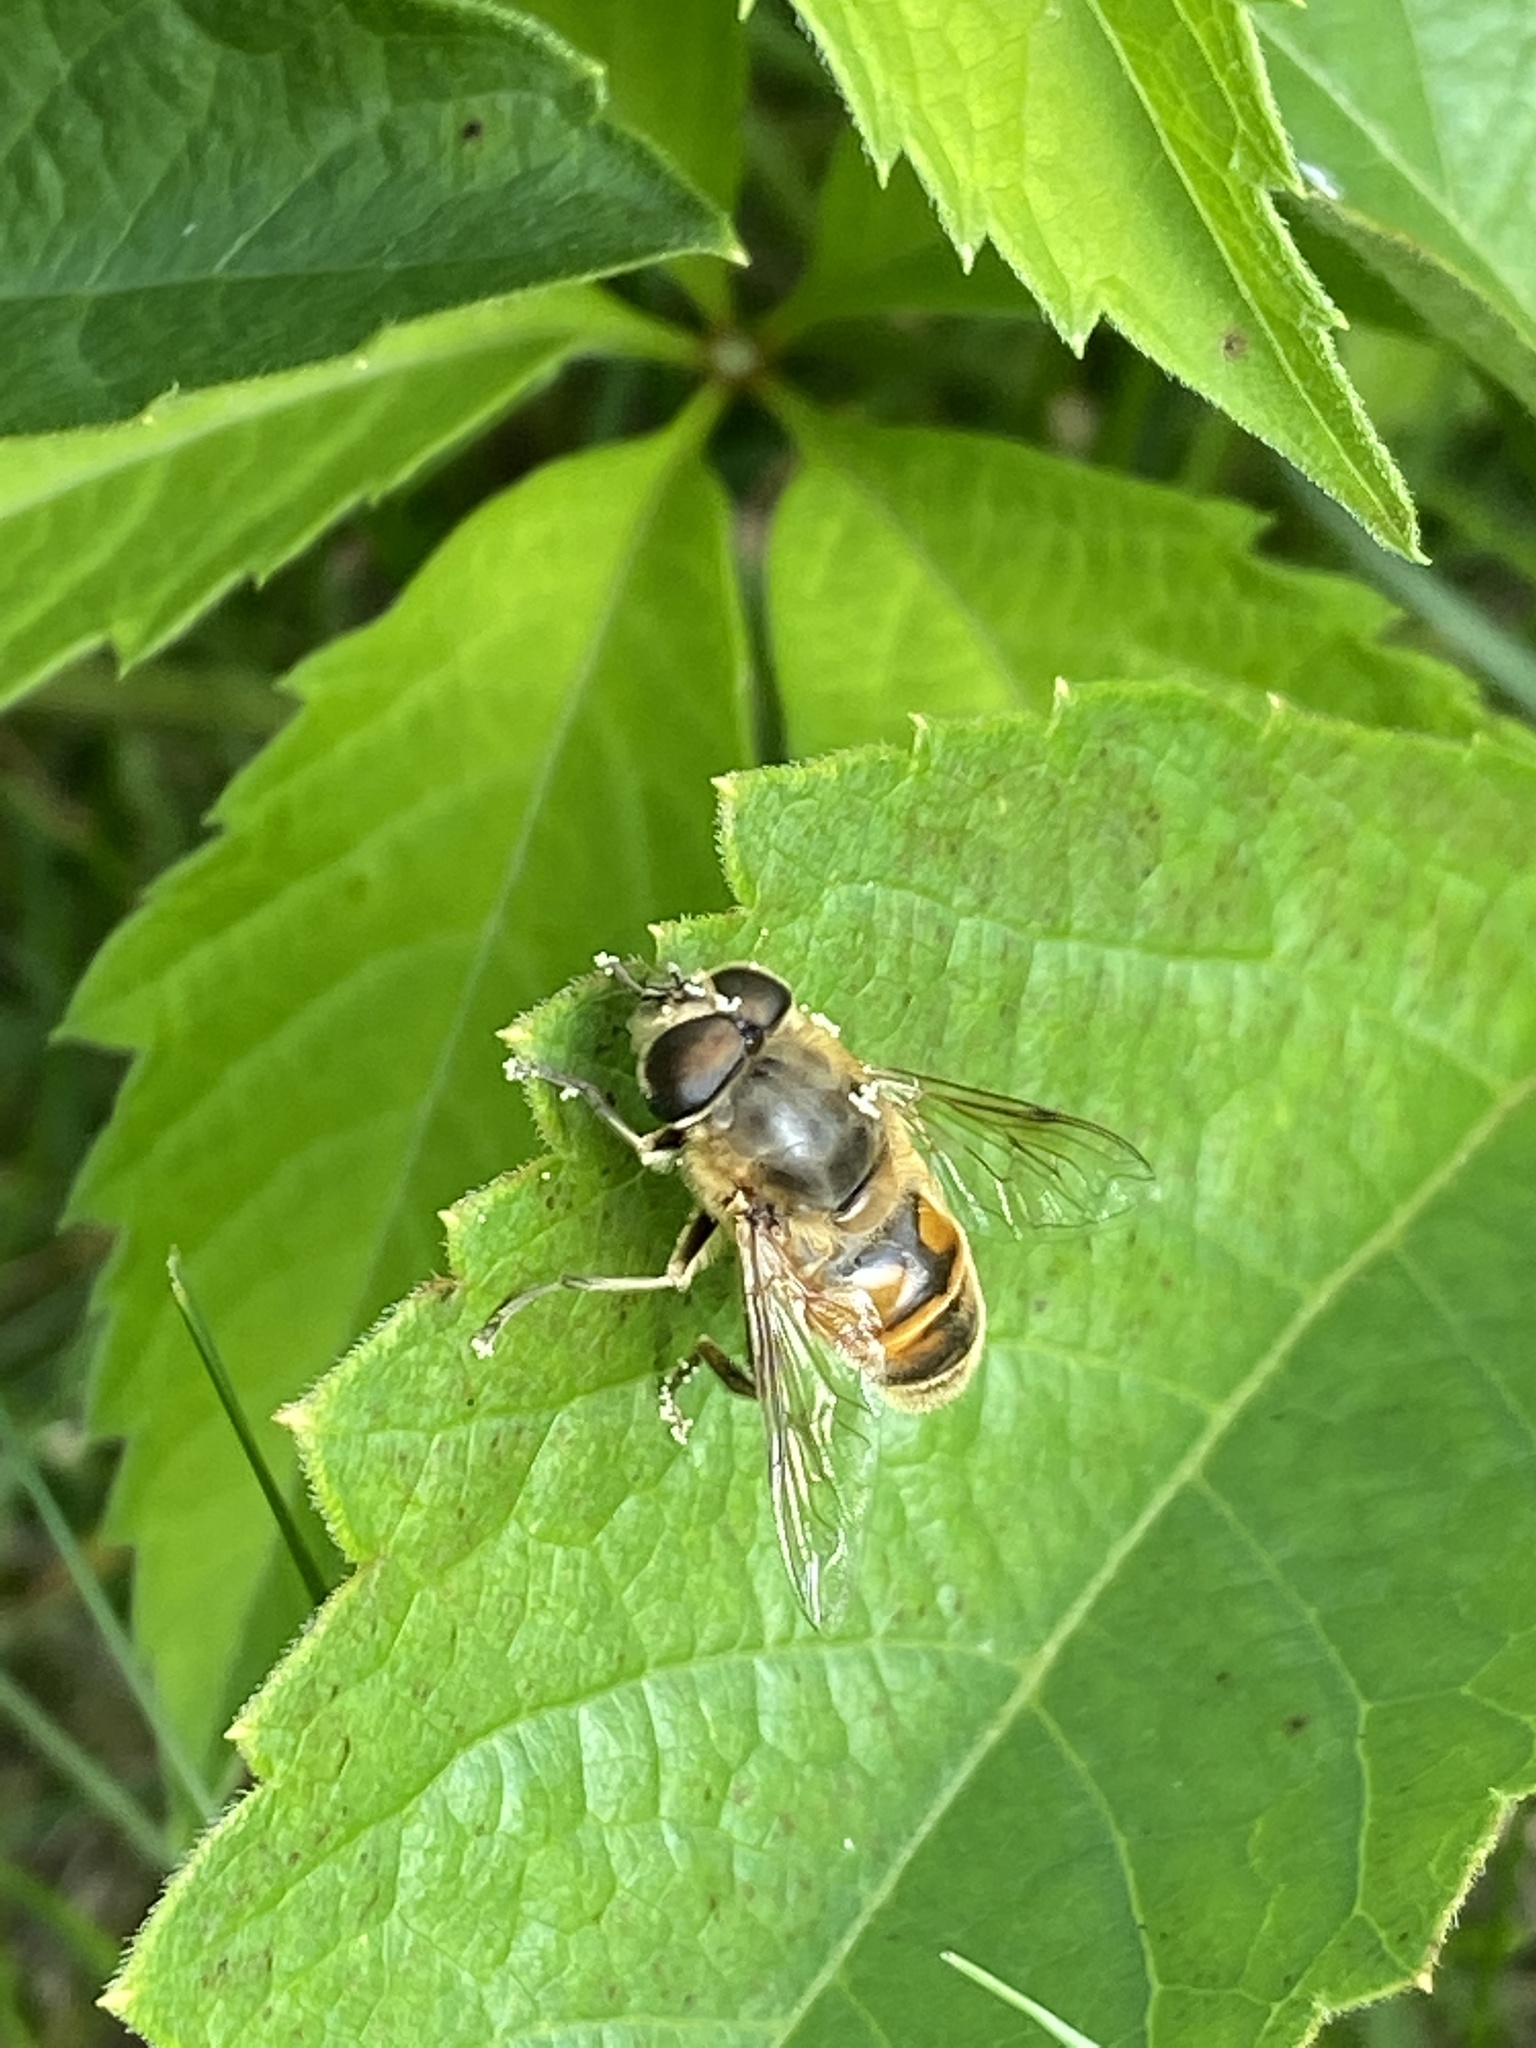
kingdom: Animalia
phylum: Arthropoda
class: Insecta
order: Diptera
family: Syrphidae
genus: Eristalis
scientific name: Eristalis tenax
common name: Drone fly
